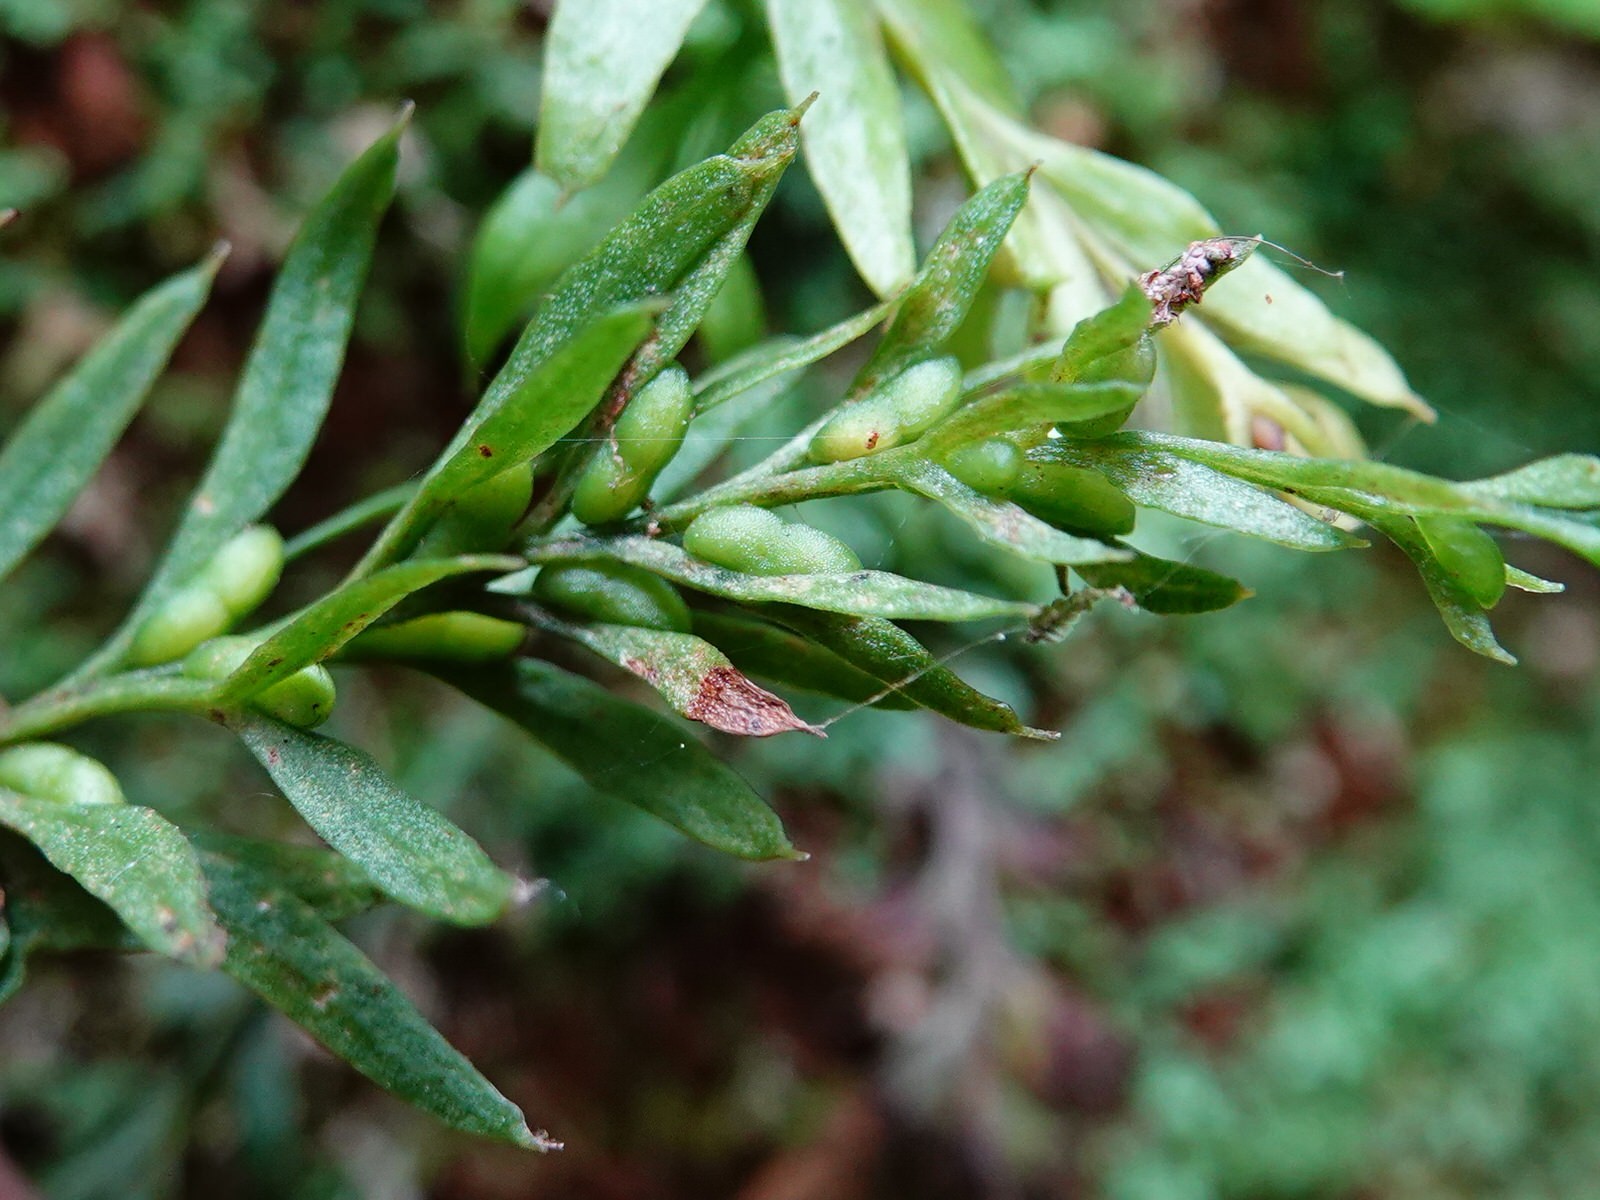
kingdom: Plantae
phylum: Tracheophyta
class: Polypodiopsida
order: Psilotales
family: Psilotaceae
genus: Tmesipteris
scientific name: Tmesipteris elongata
